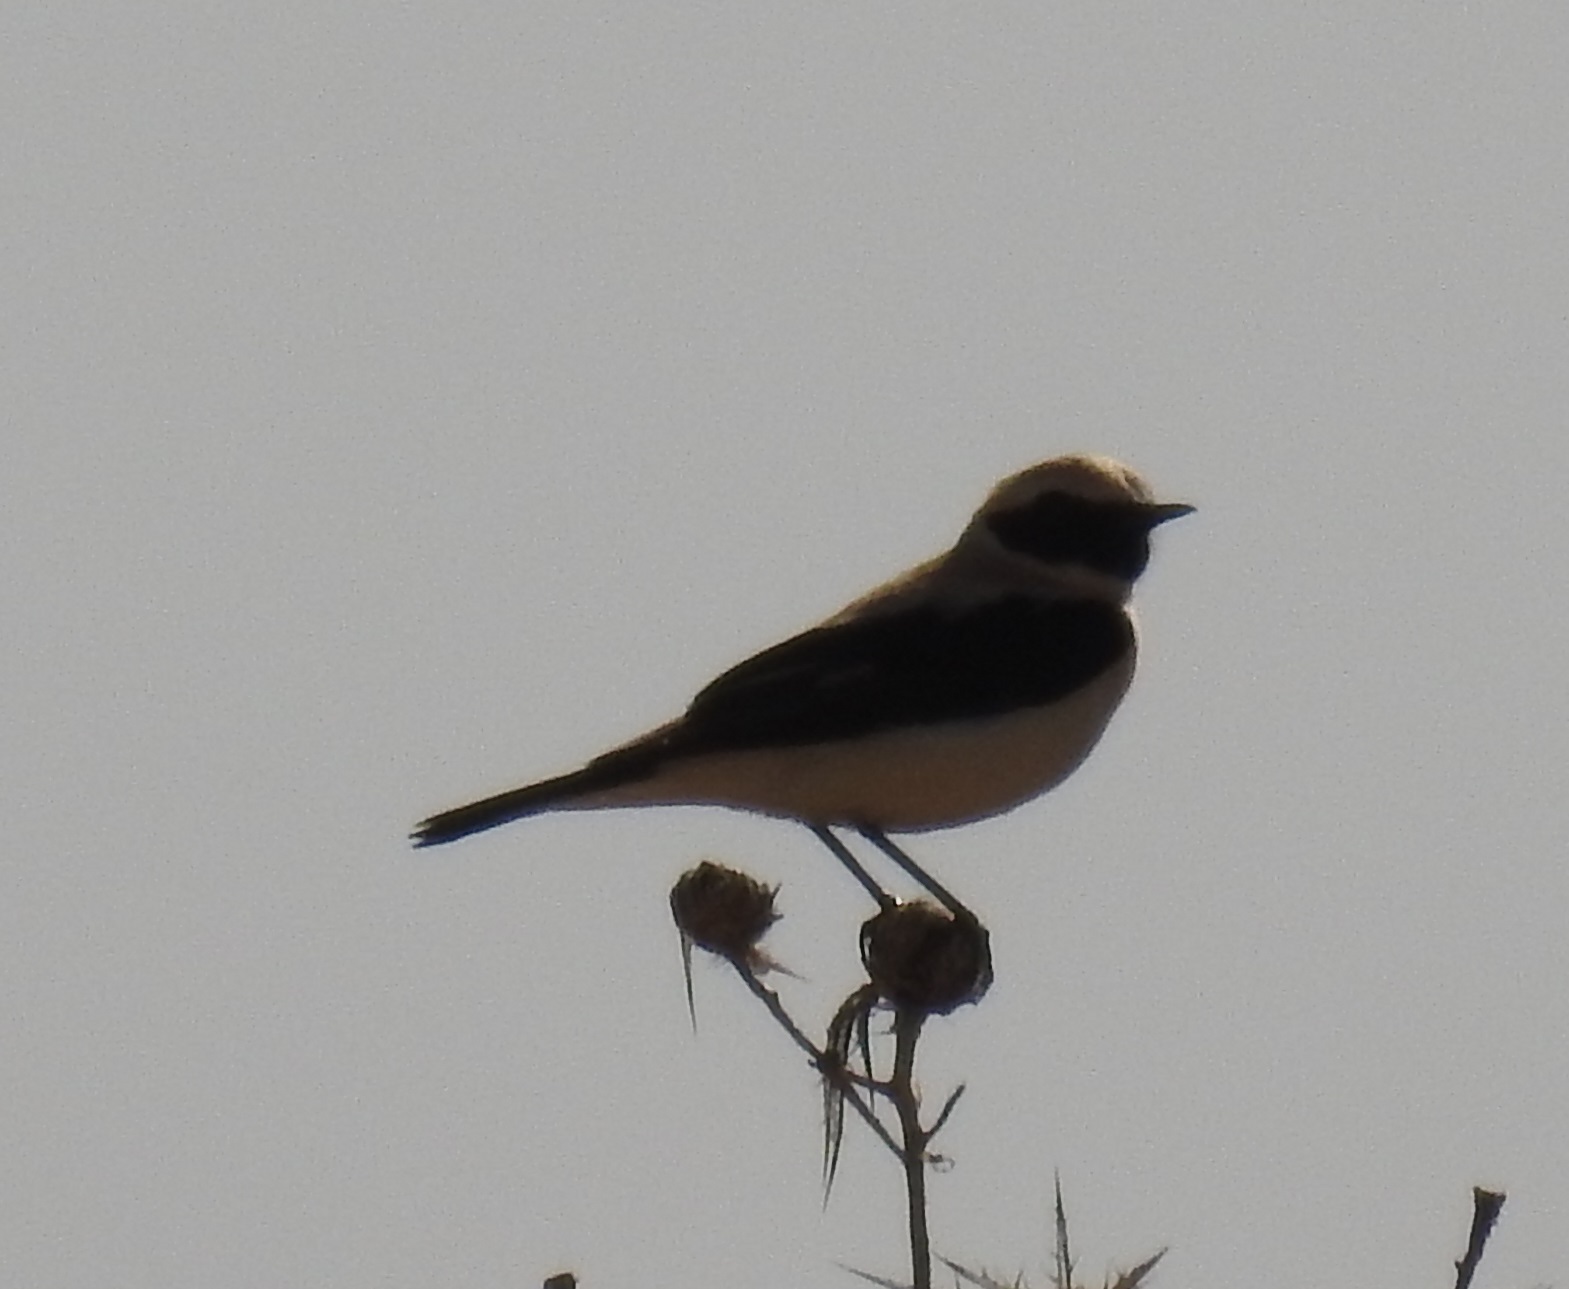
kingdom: Animalia
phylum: Chordata
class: Aves
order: Passeriformes
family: Muscicapidae
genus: Oenanthe
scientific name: Oenanthe hispanica
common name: Black-eared wheatear
